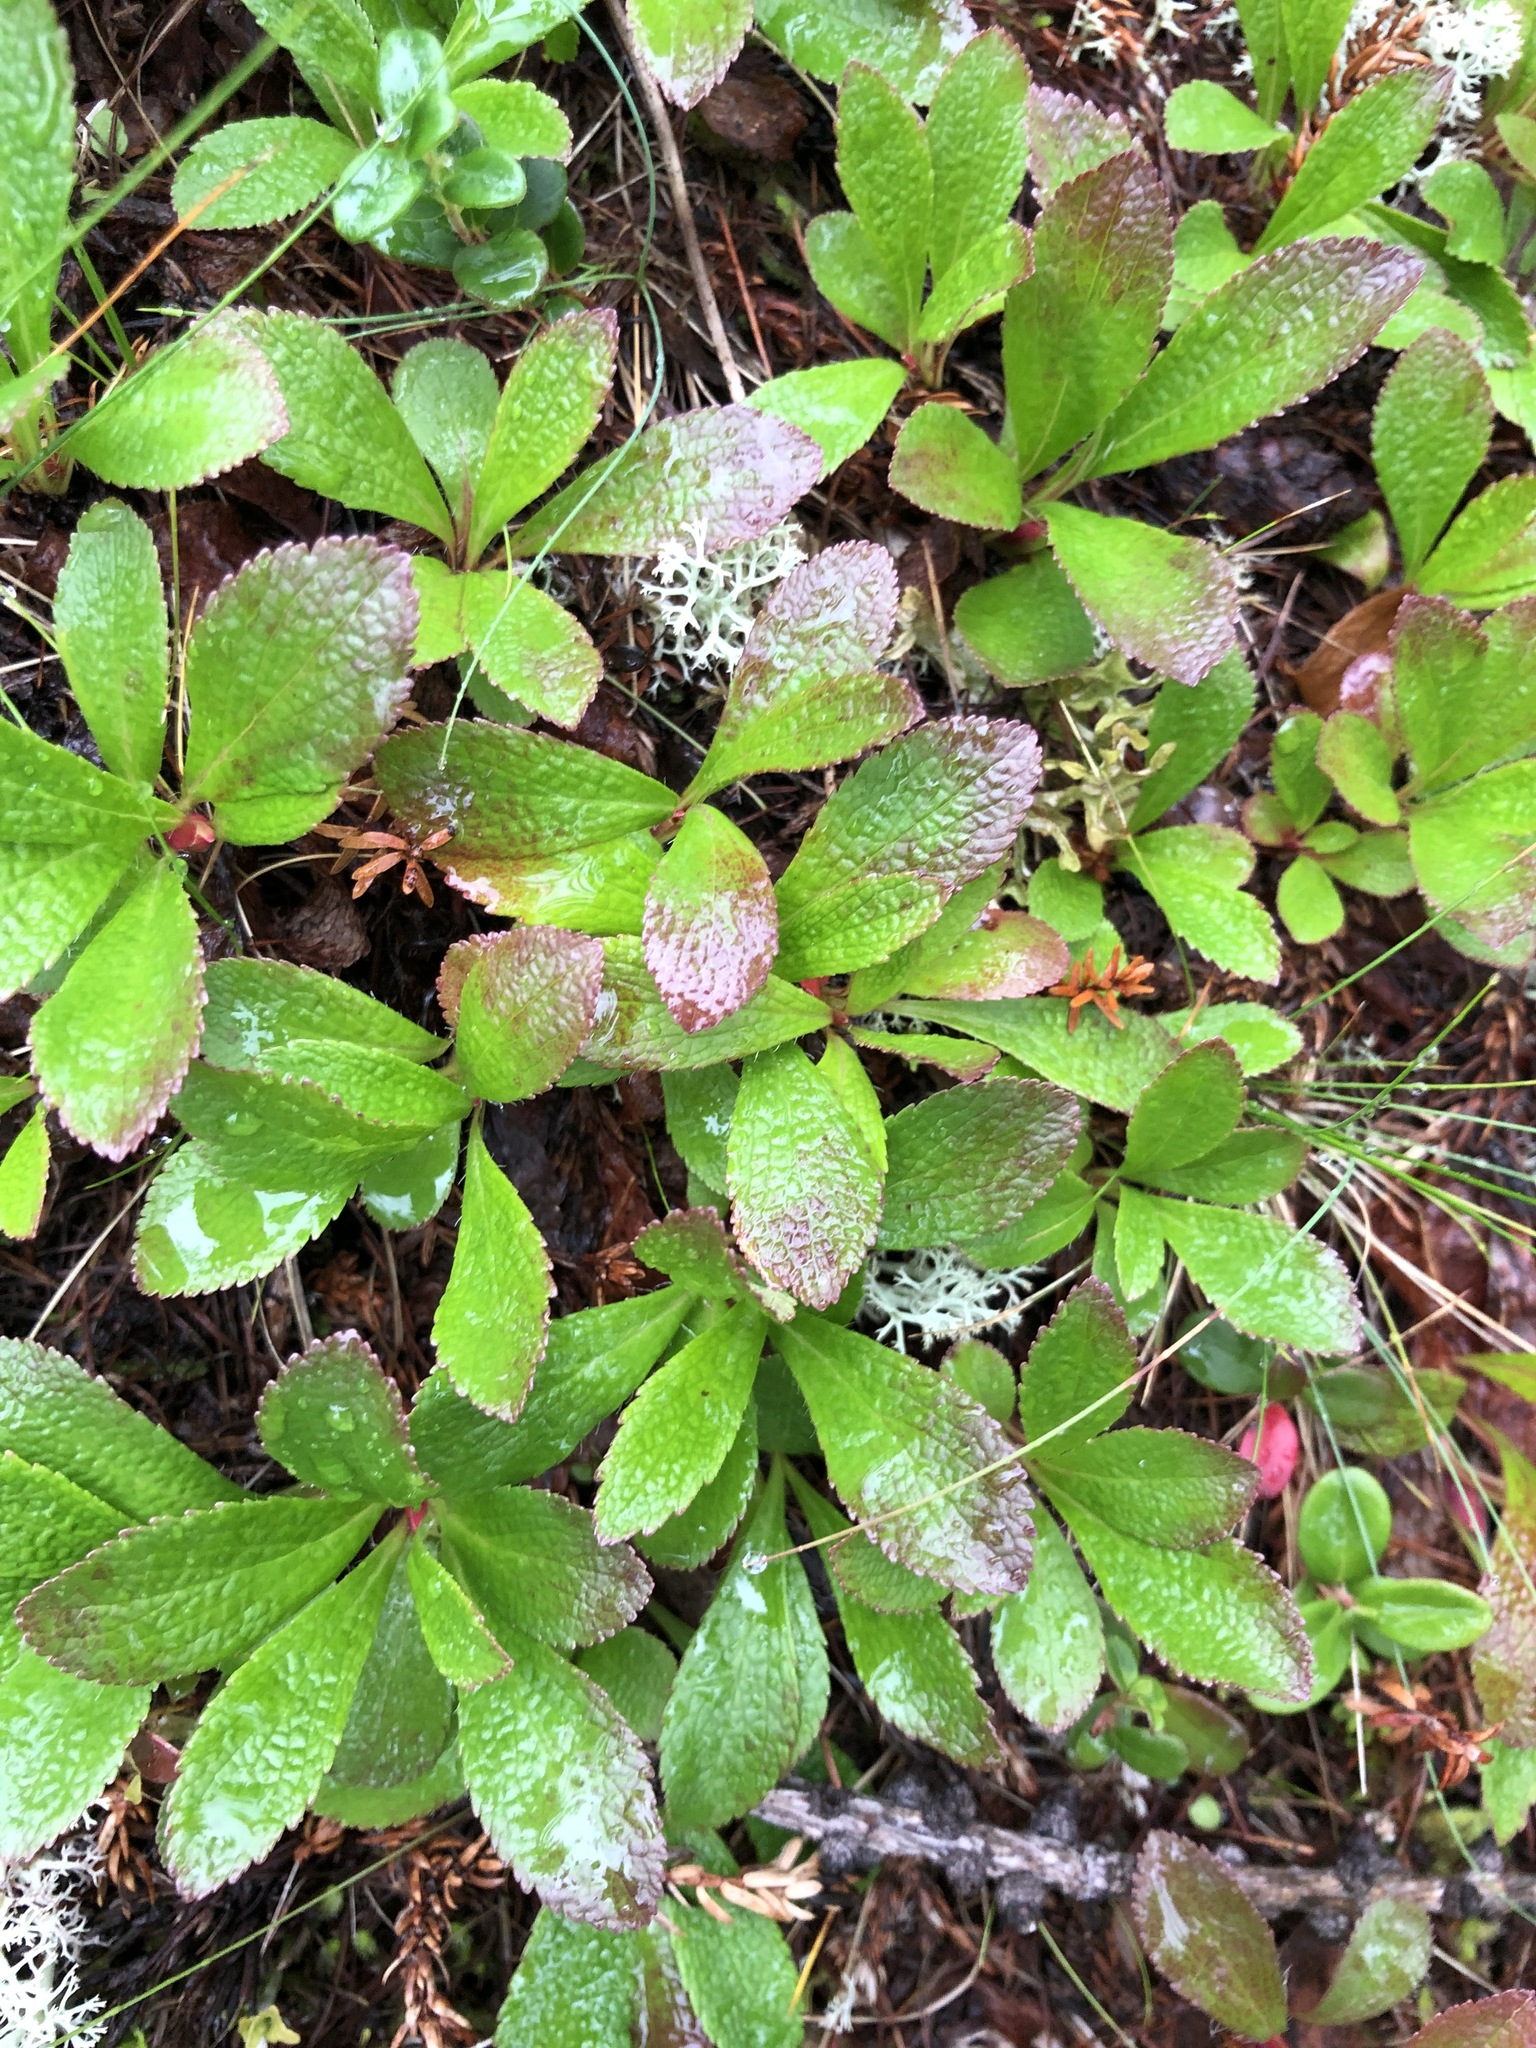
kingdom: Plantae
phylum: Tracheophyta
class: Magnoliopsida
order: Ericales
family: Ericaceae
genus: Arctostaphylos
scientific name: Arctostaphylos alpinus
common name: Alpine bearberry
